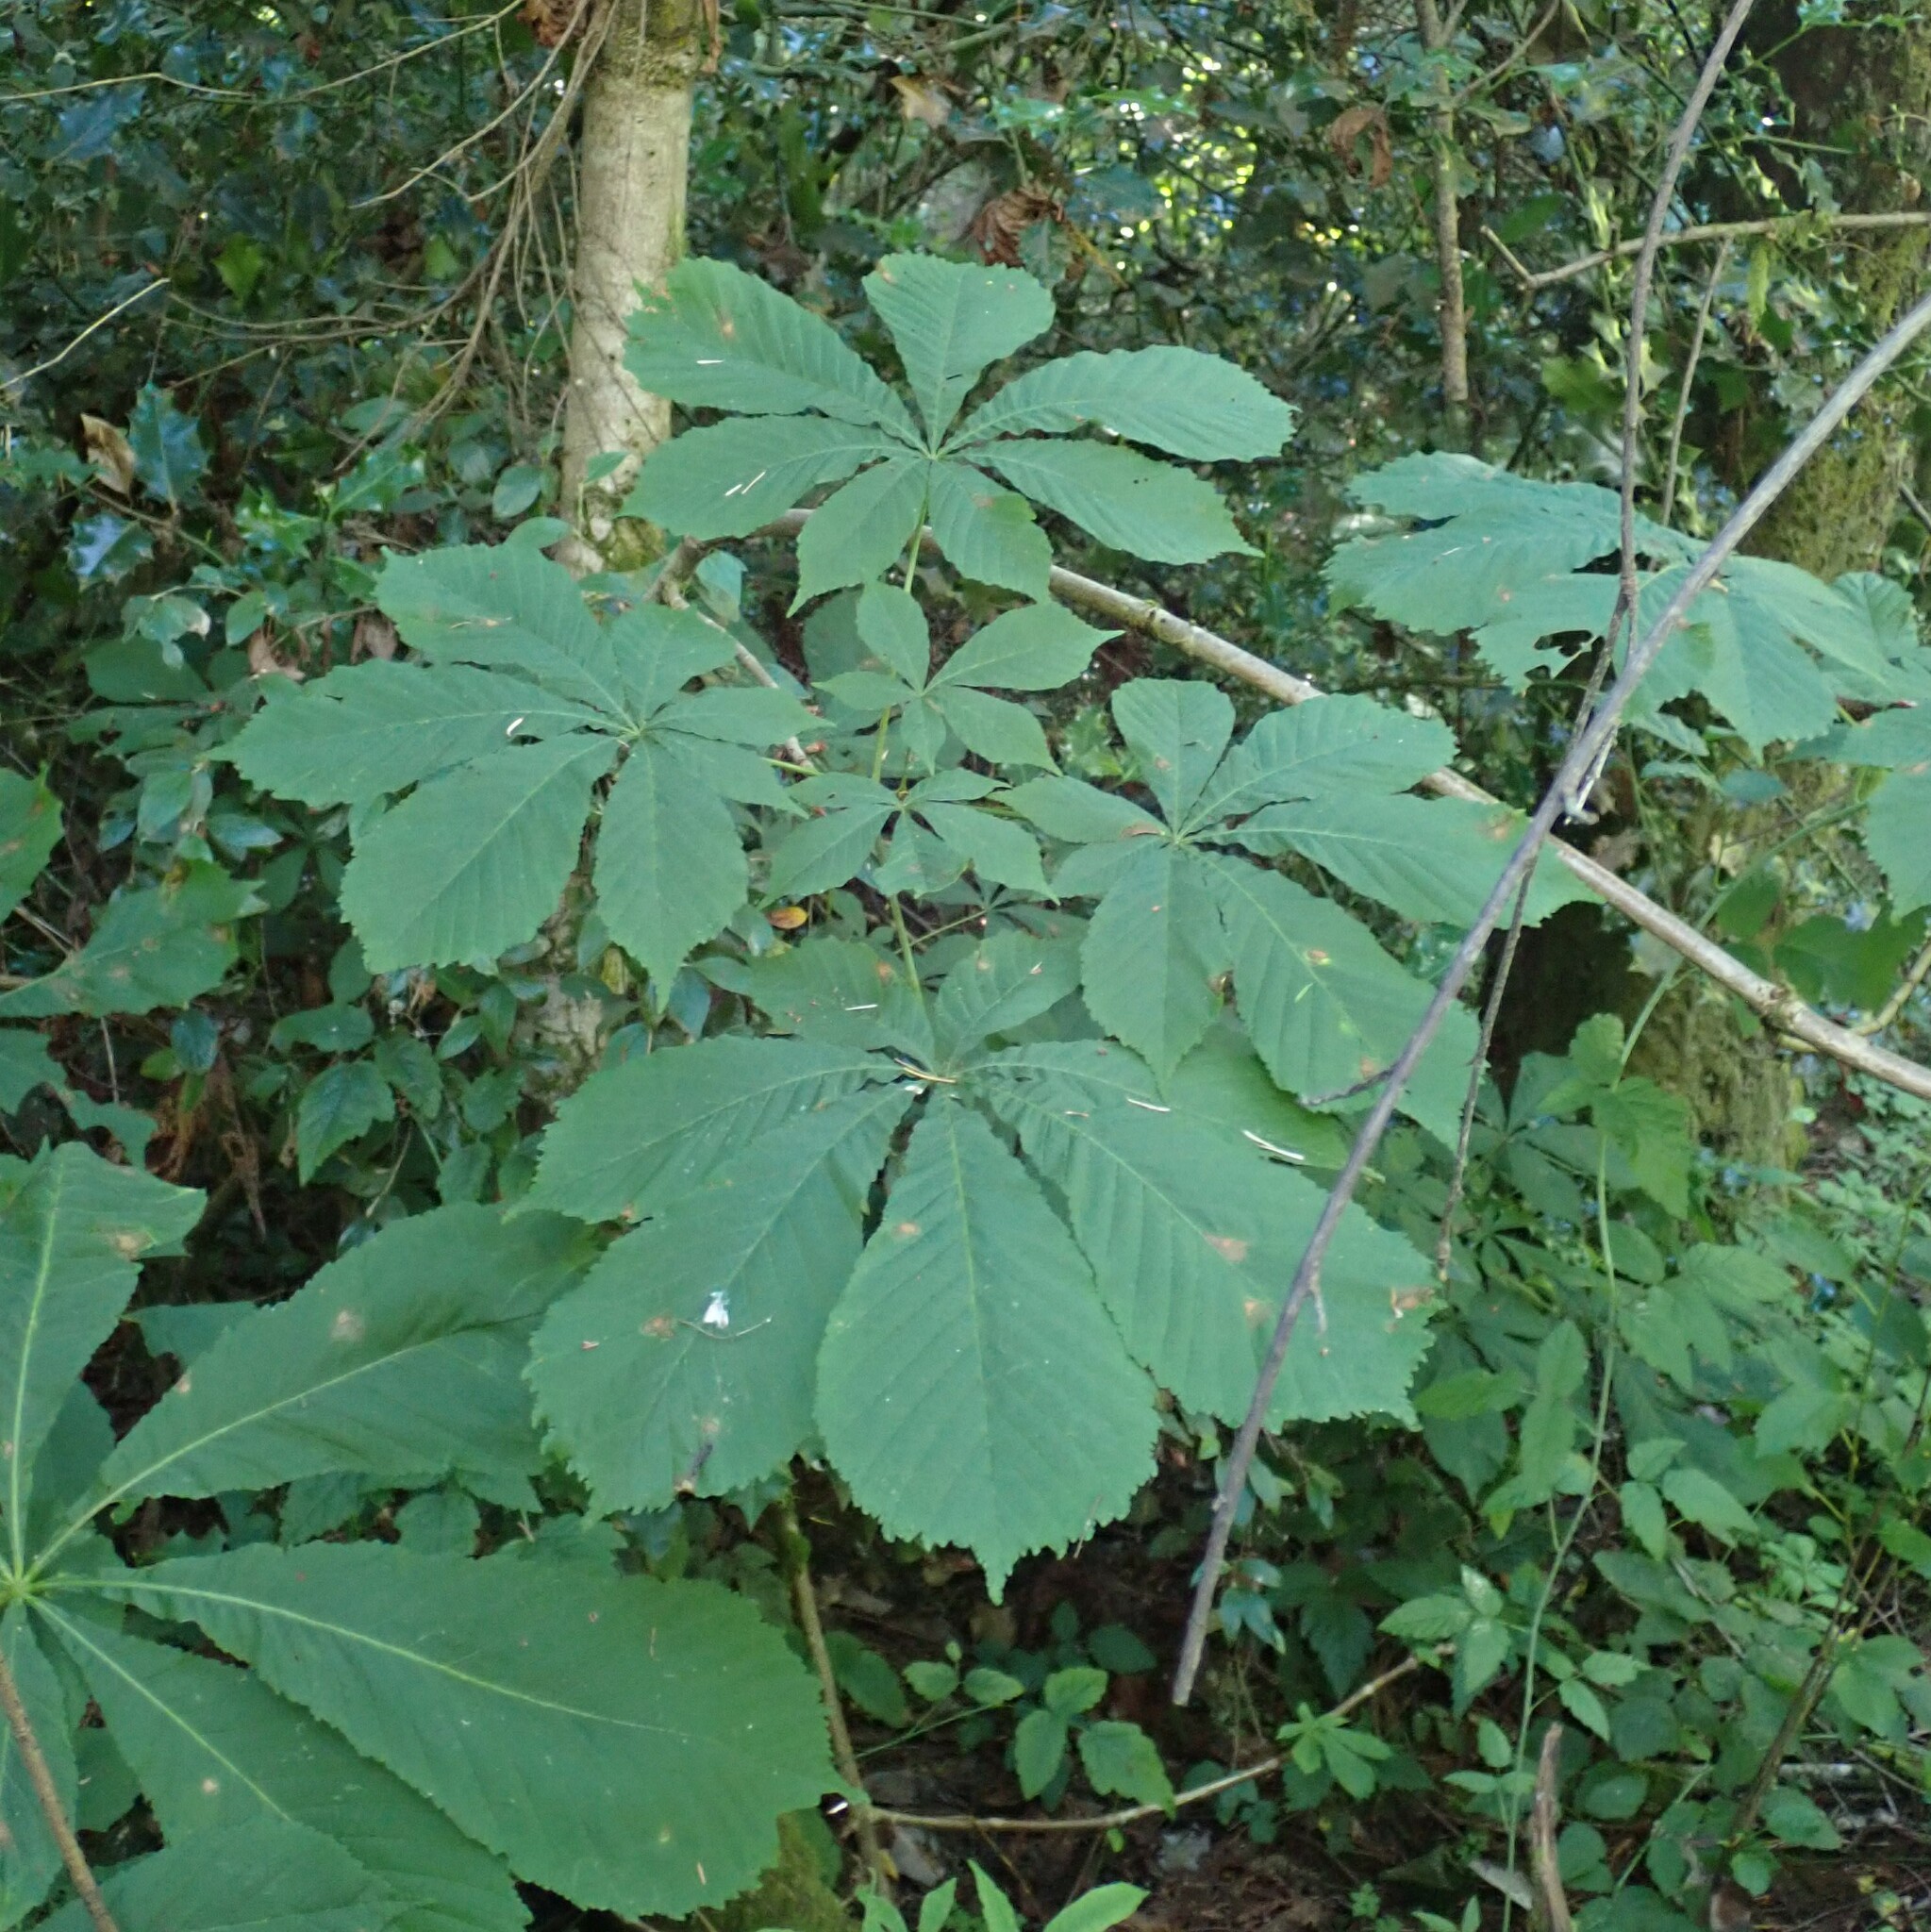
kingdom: Plantae
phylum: Tracheophyta
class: Magnoliopsida
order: Sapindales
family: Sapindaceae
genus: Aesculus
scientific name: Aesculus hippocastanum
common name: Horse-chestnut
